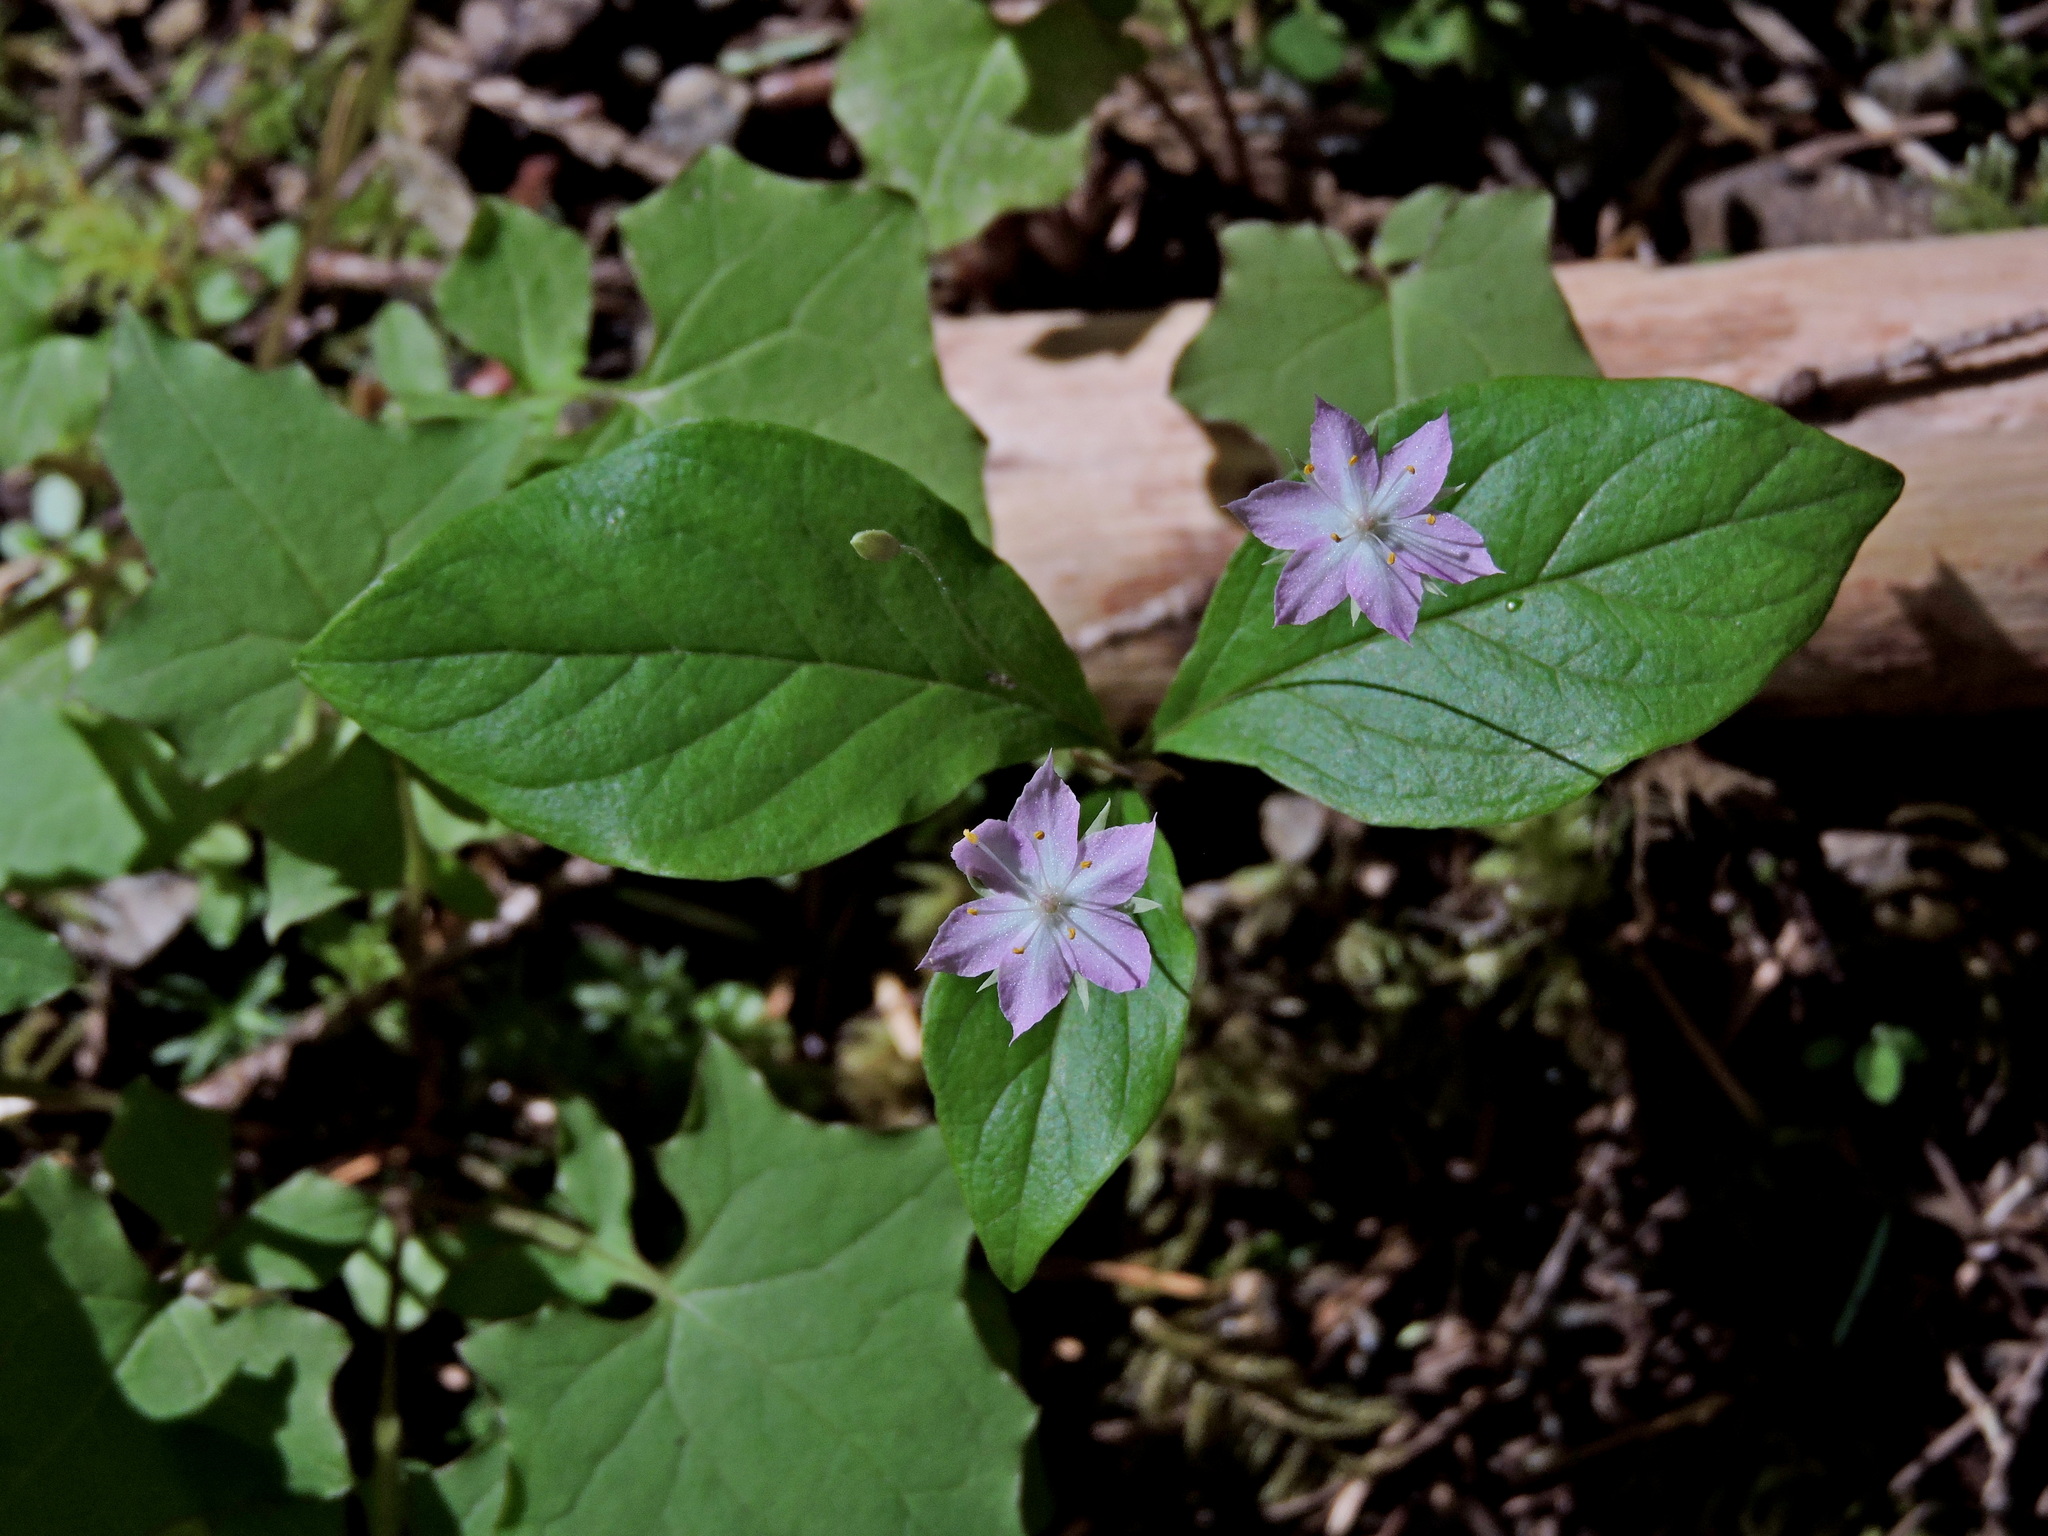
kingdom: Plantae
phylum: Tracheophyta
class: Magnoliopsida
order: Ericales
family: Primulaceae
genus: Lysimachia
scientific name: Lysimachia latifolia
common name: Pacific starflower
